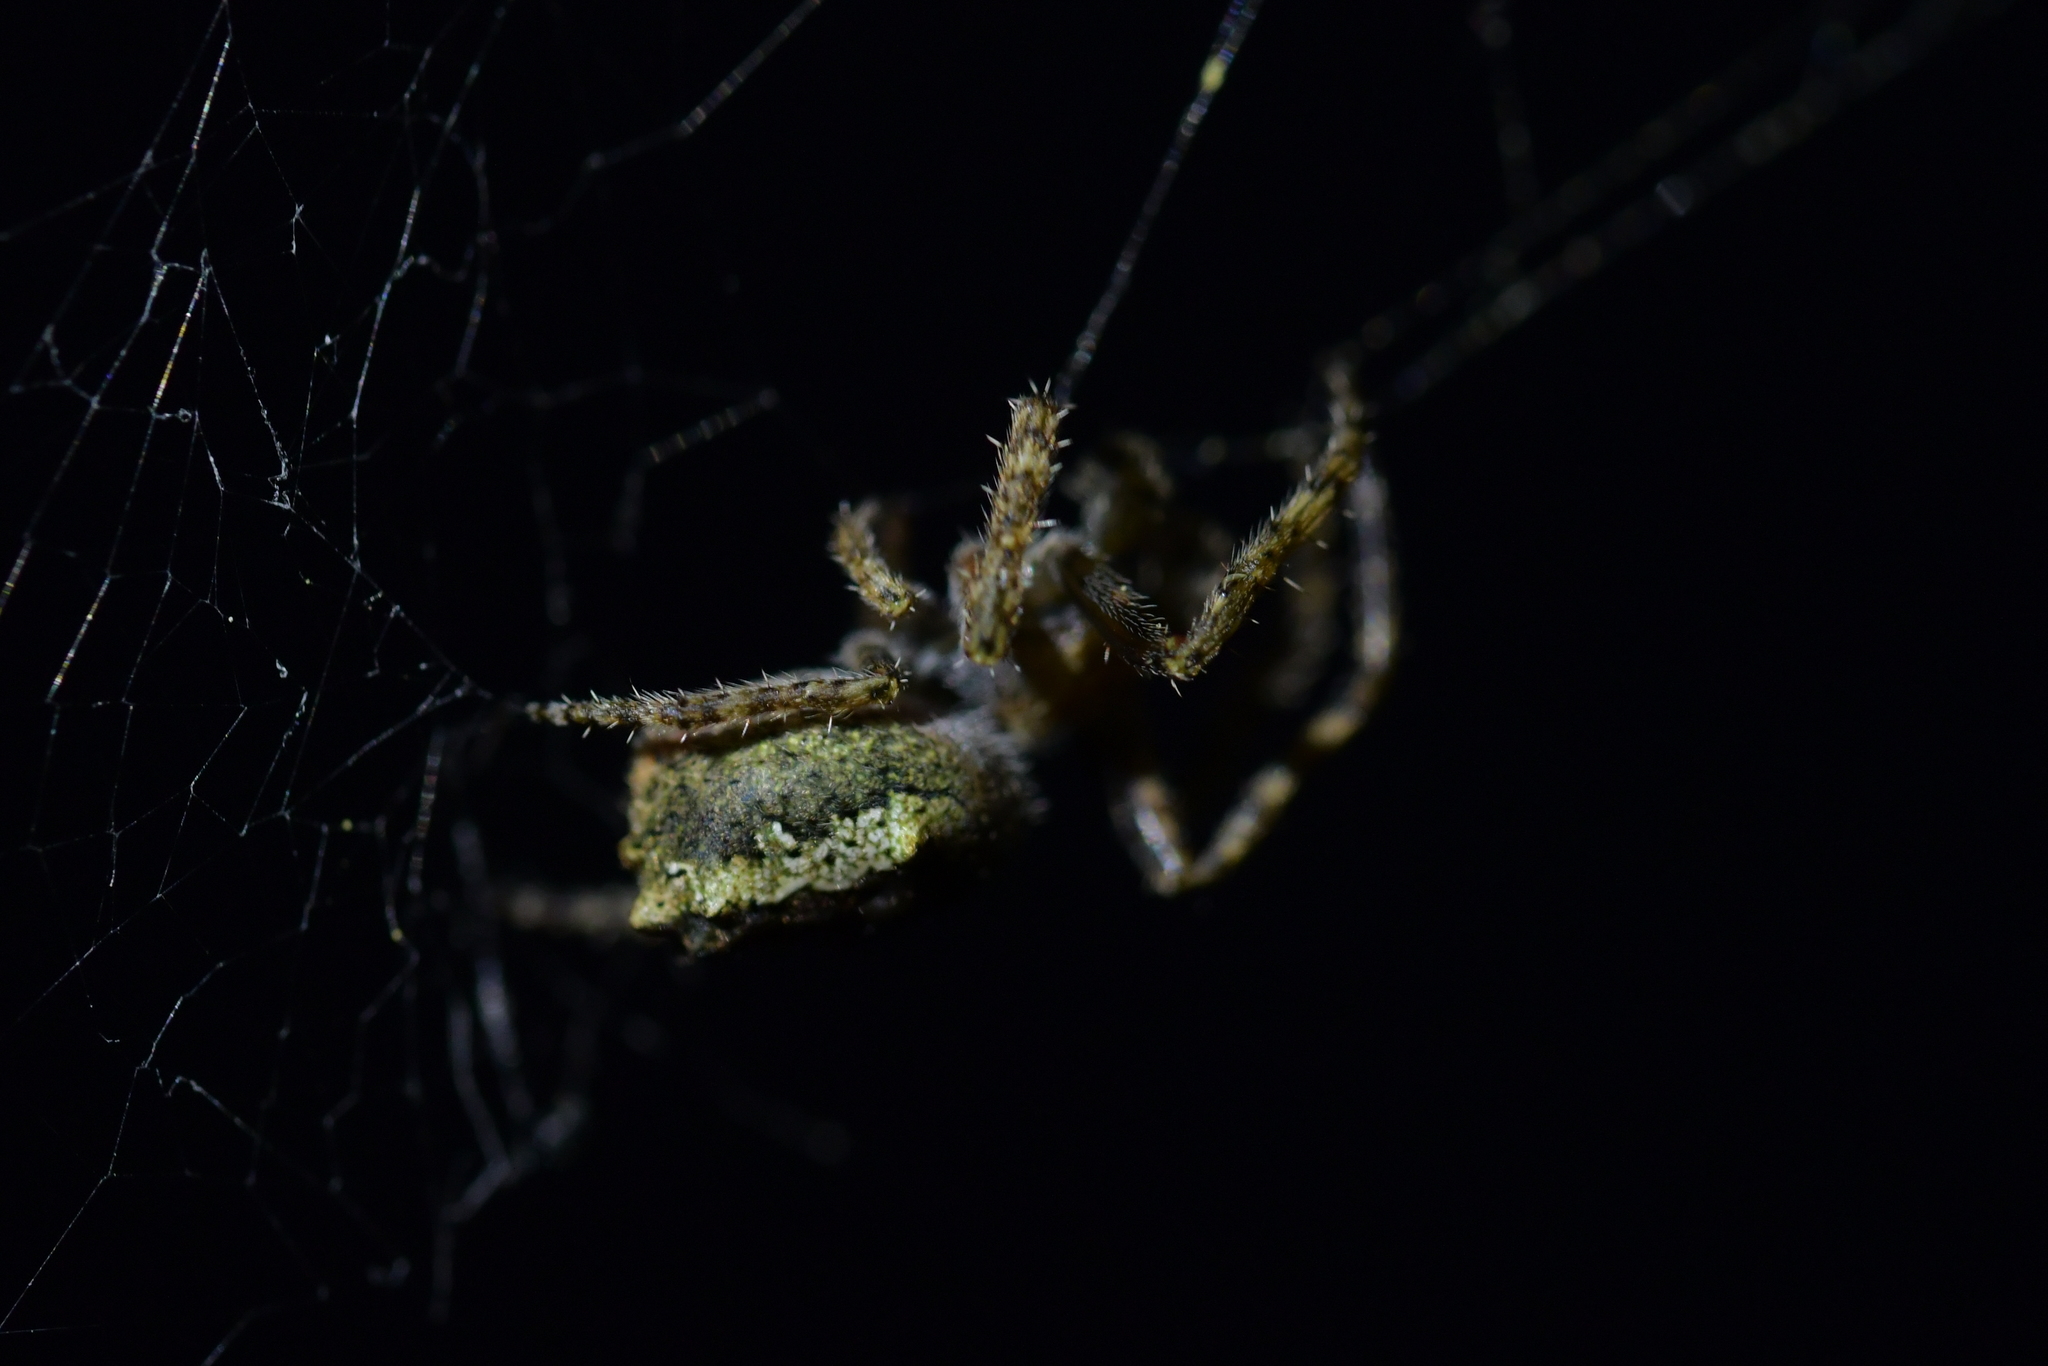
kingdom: Animalia
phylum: Arthropoda
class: Insecta
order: Lepidoptera
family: Noctuidae
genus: Ichneutica
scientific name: Ichneutica mutans
